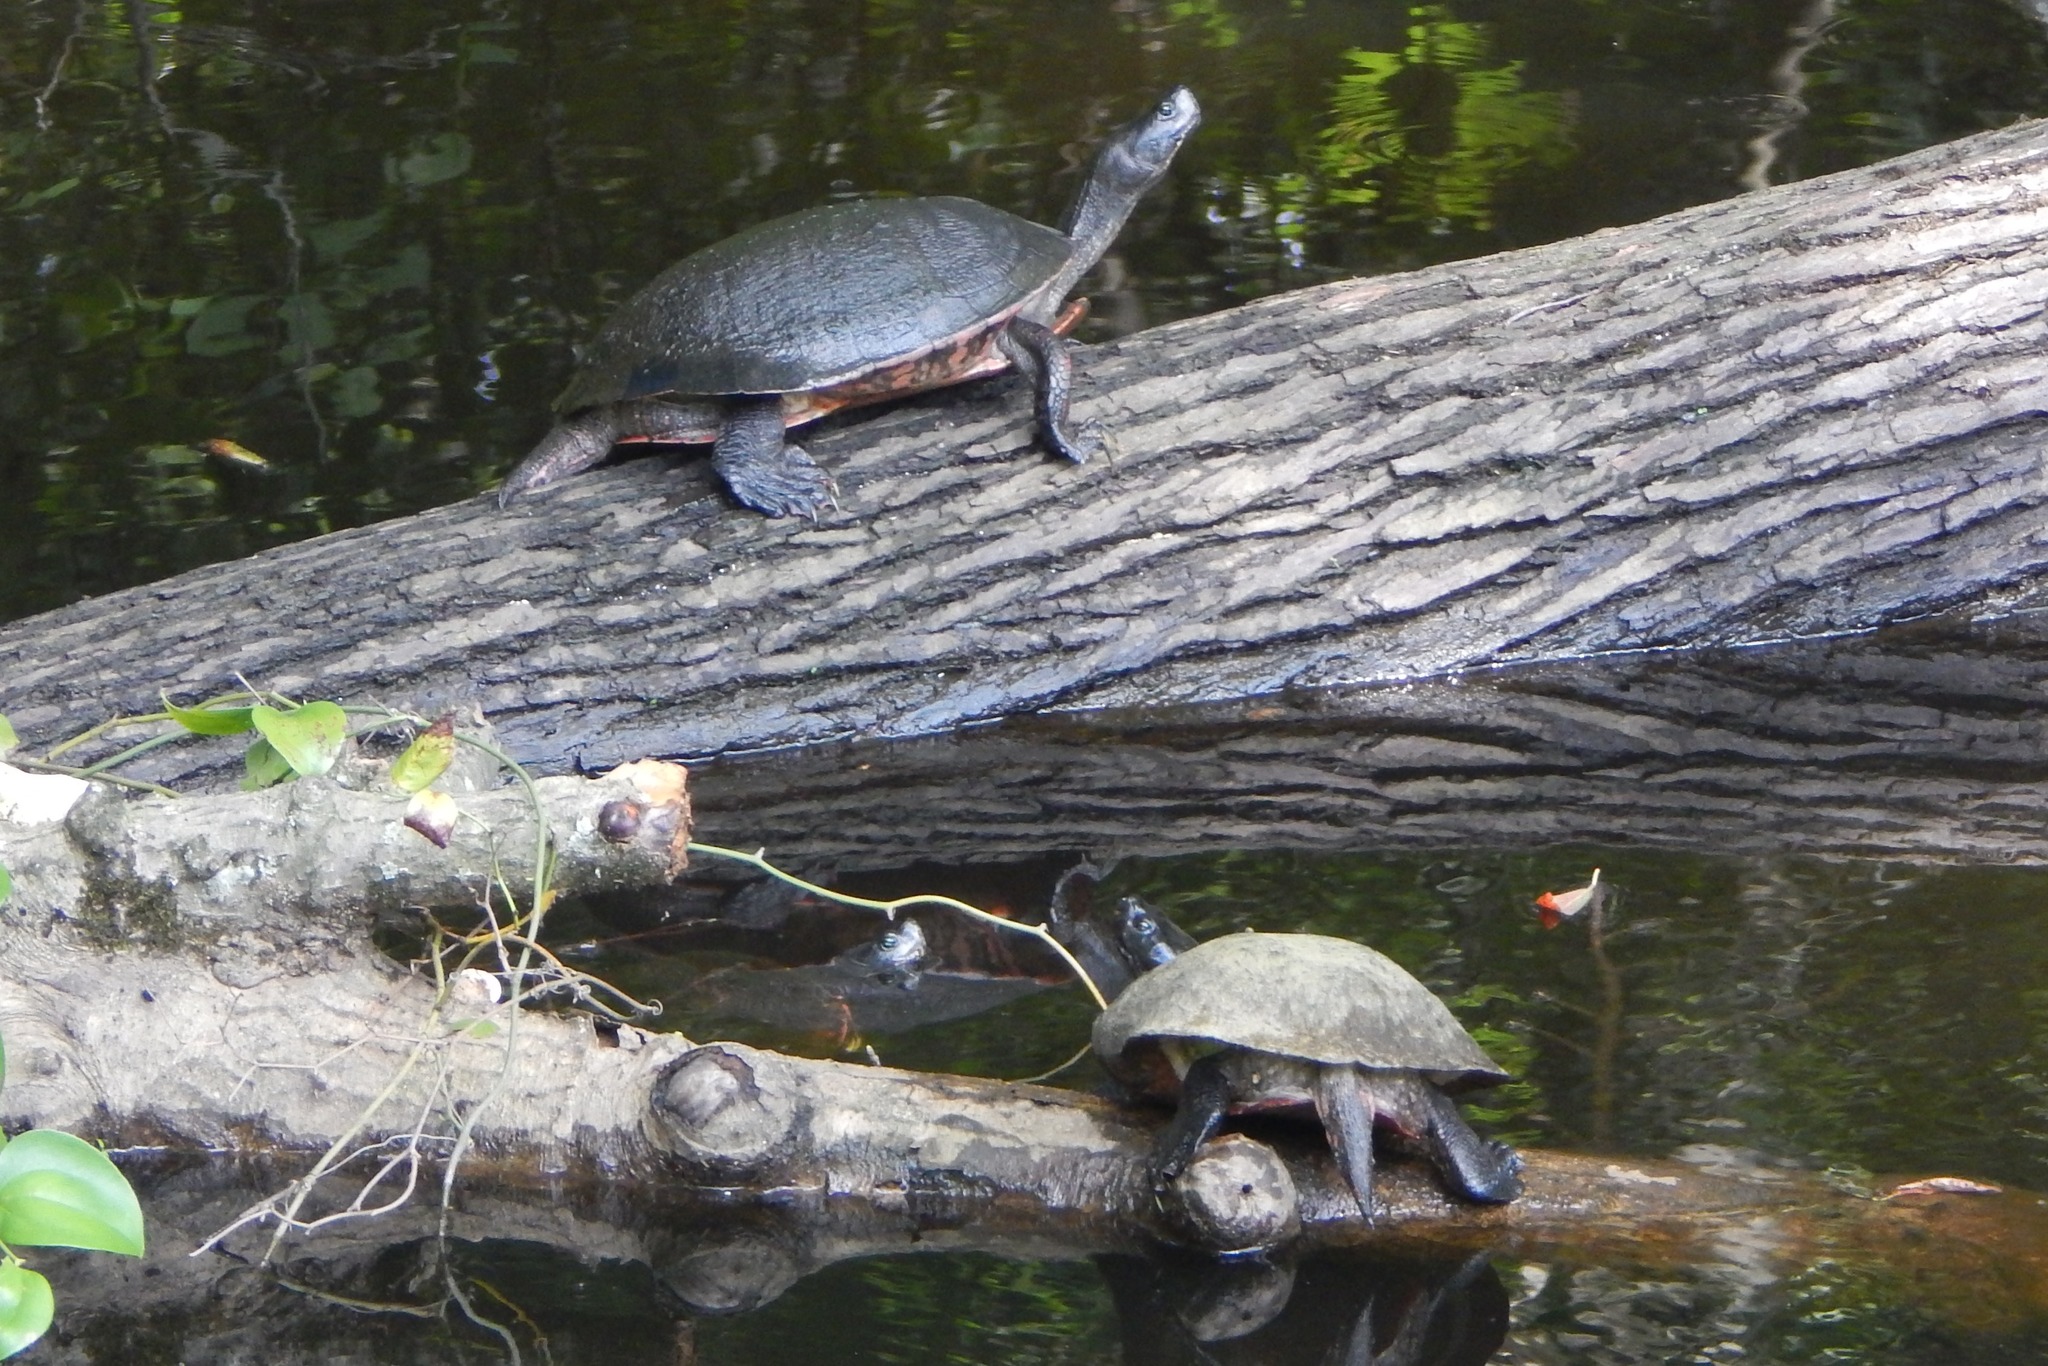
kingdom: Animalia
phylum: Chordata
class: Testudines
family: Emydidae
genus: Pseudemys
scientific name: Pseudemys rubriventris
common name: American red-bellied turtle
